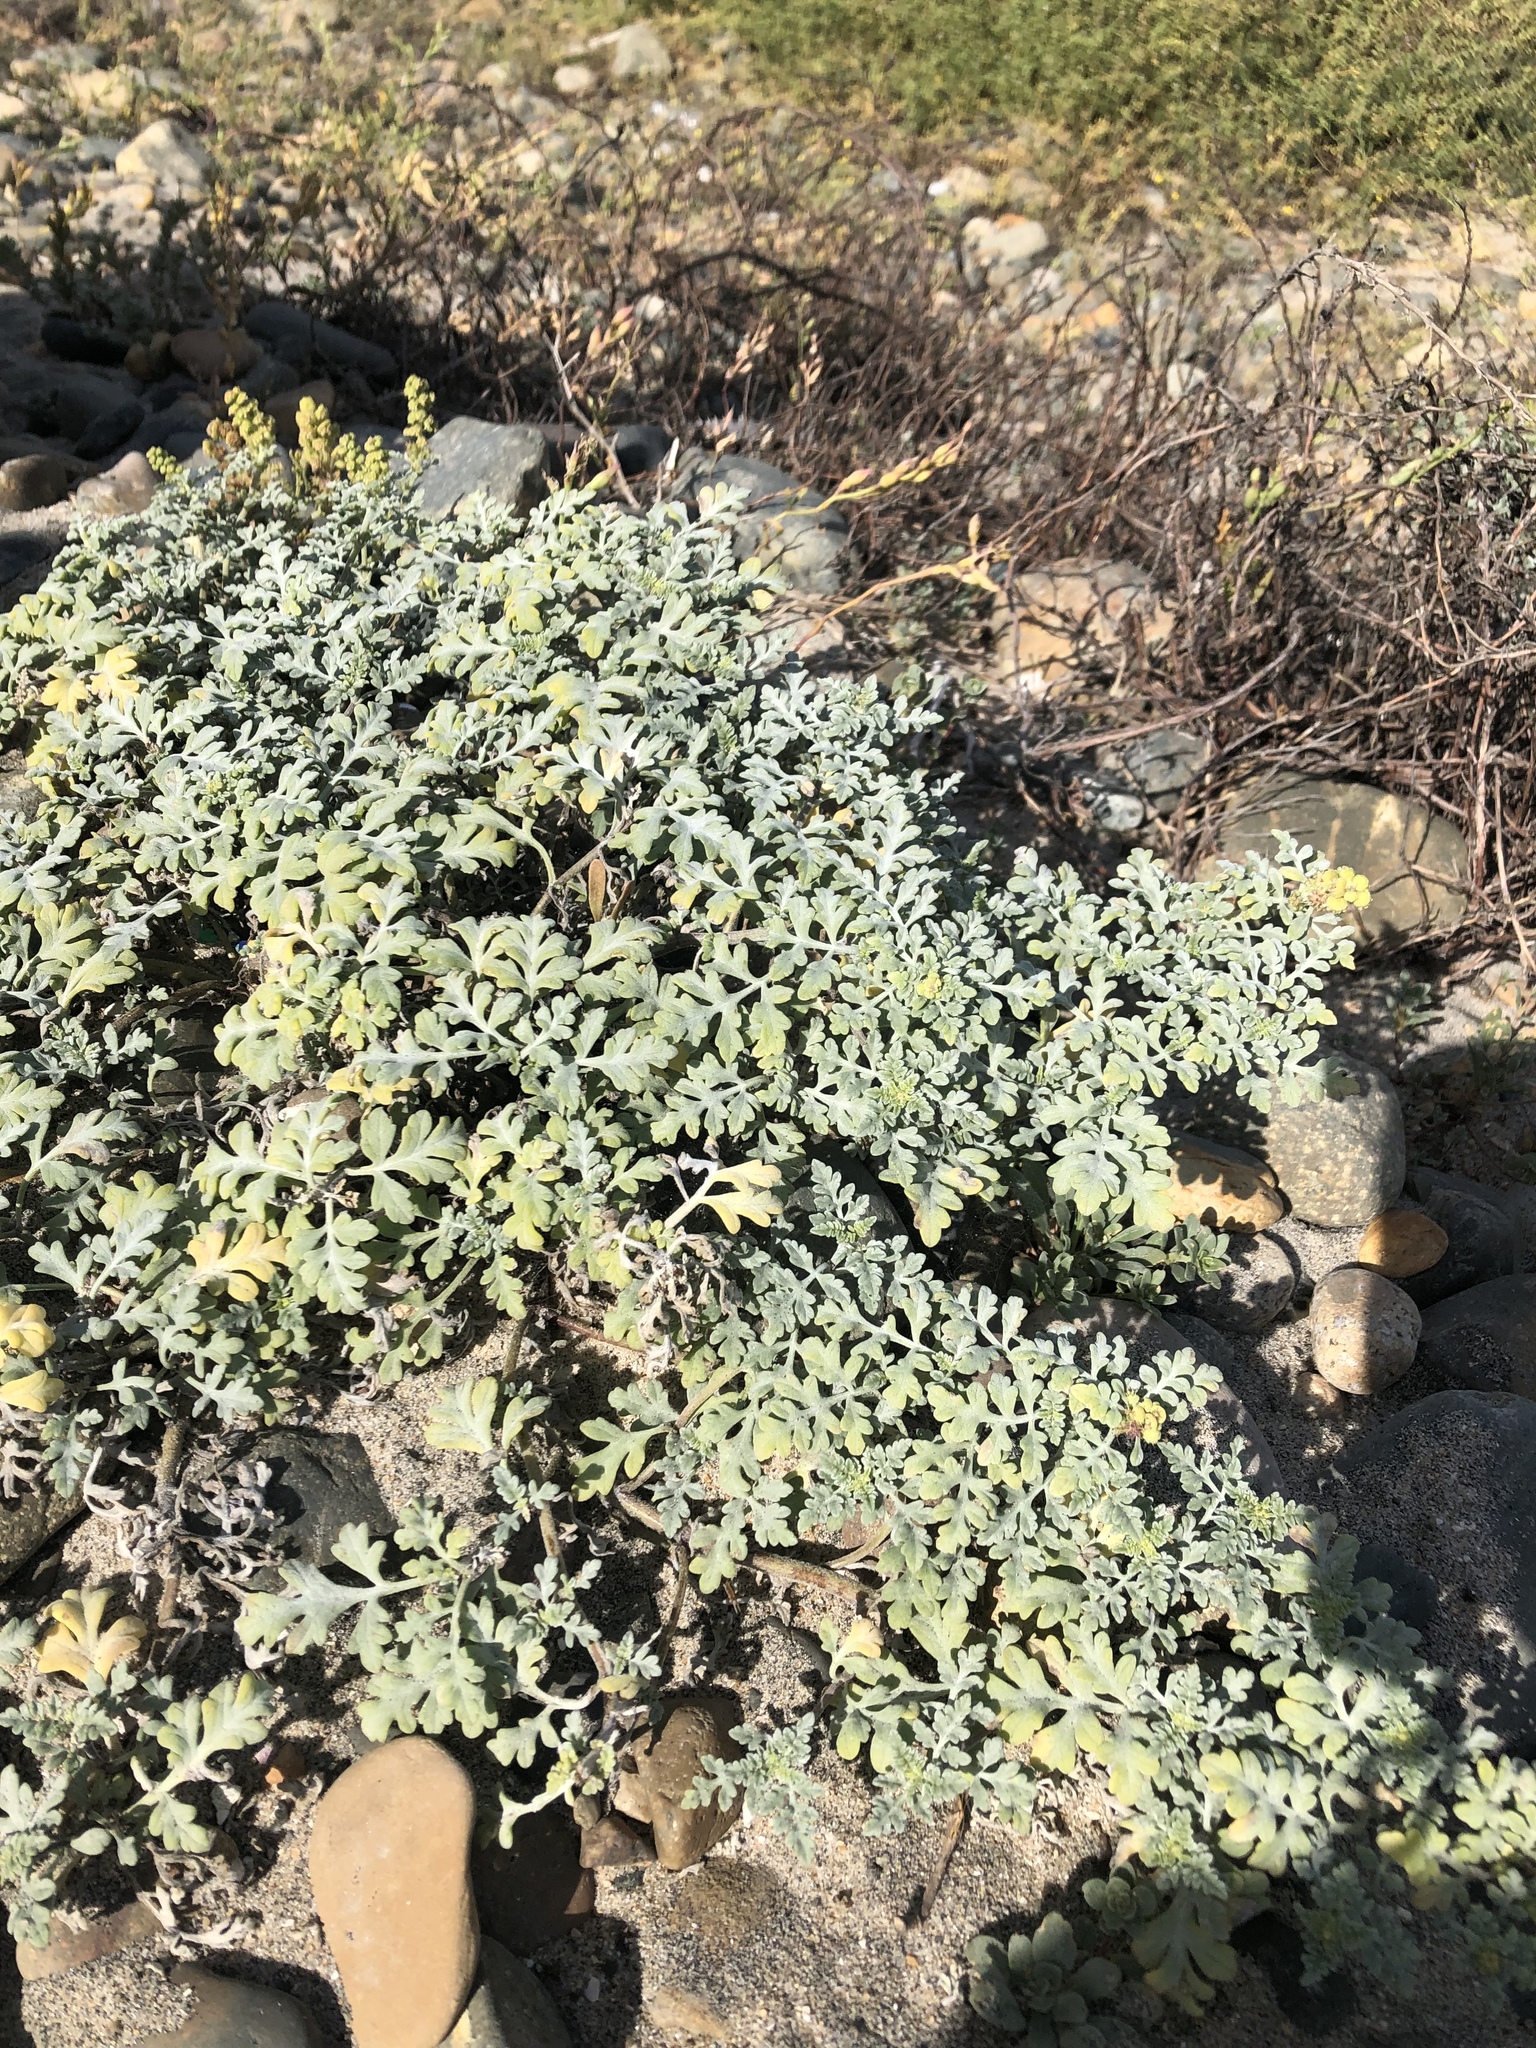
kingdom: Plantae
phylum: Tracheophyta
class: Magnoliopsida
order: Asterales
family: Asteraceae
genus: Ambrosia
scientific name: Ambrosia chamissonis
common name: Beachbur
